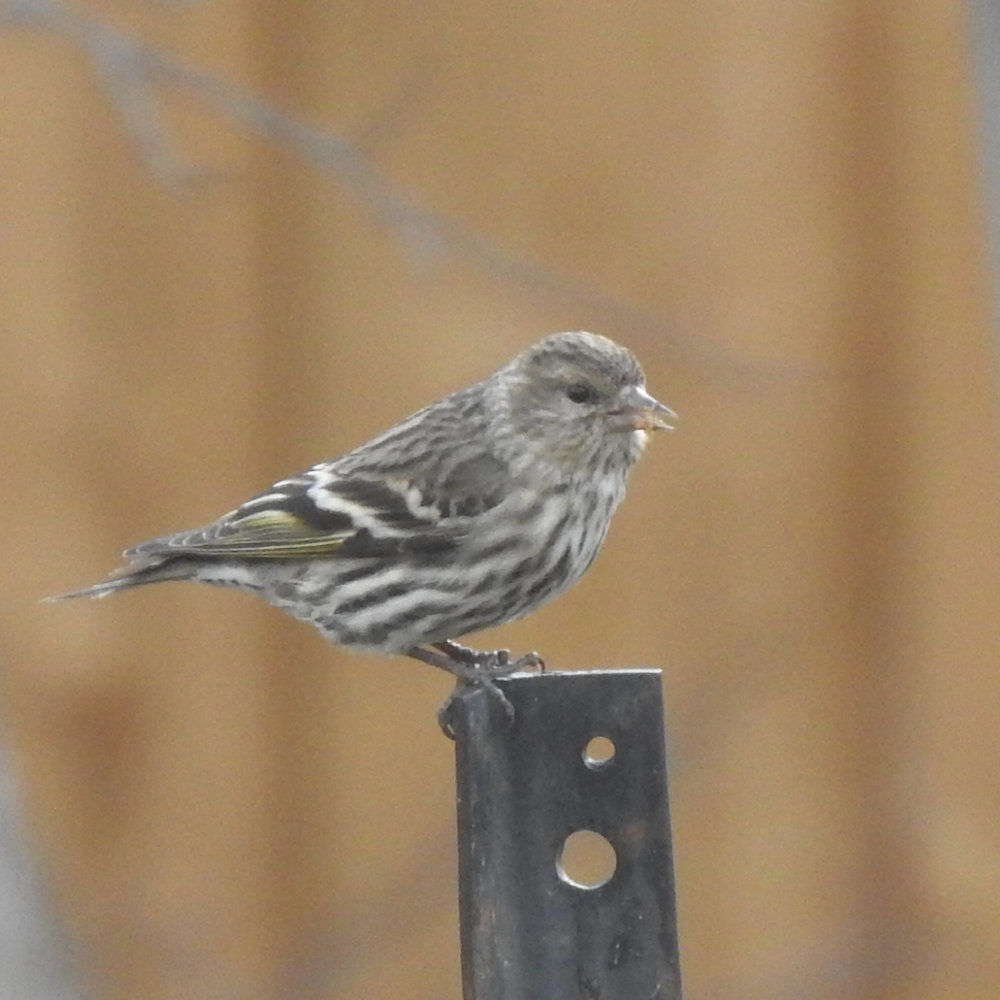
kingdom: Animalia
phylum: Chordata
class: Aves
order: Passeriformes
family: Fringillidae
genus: Spinus
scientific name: Spinus pinus
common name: Pine siskin
